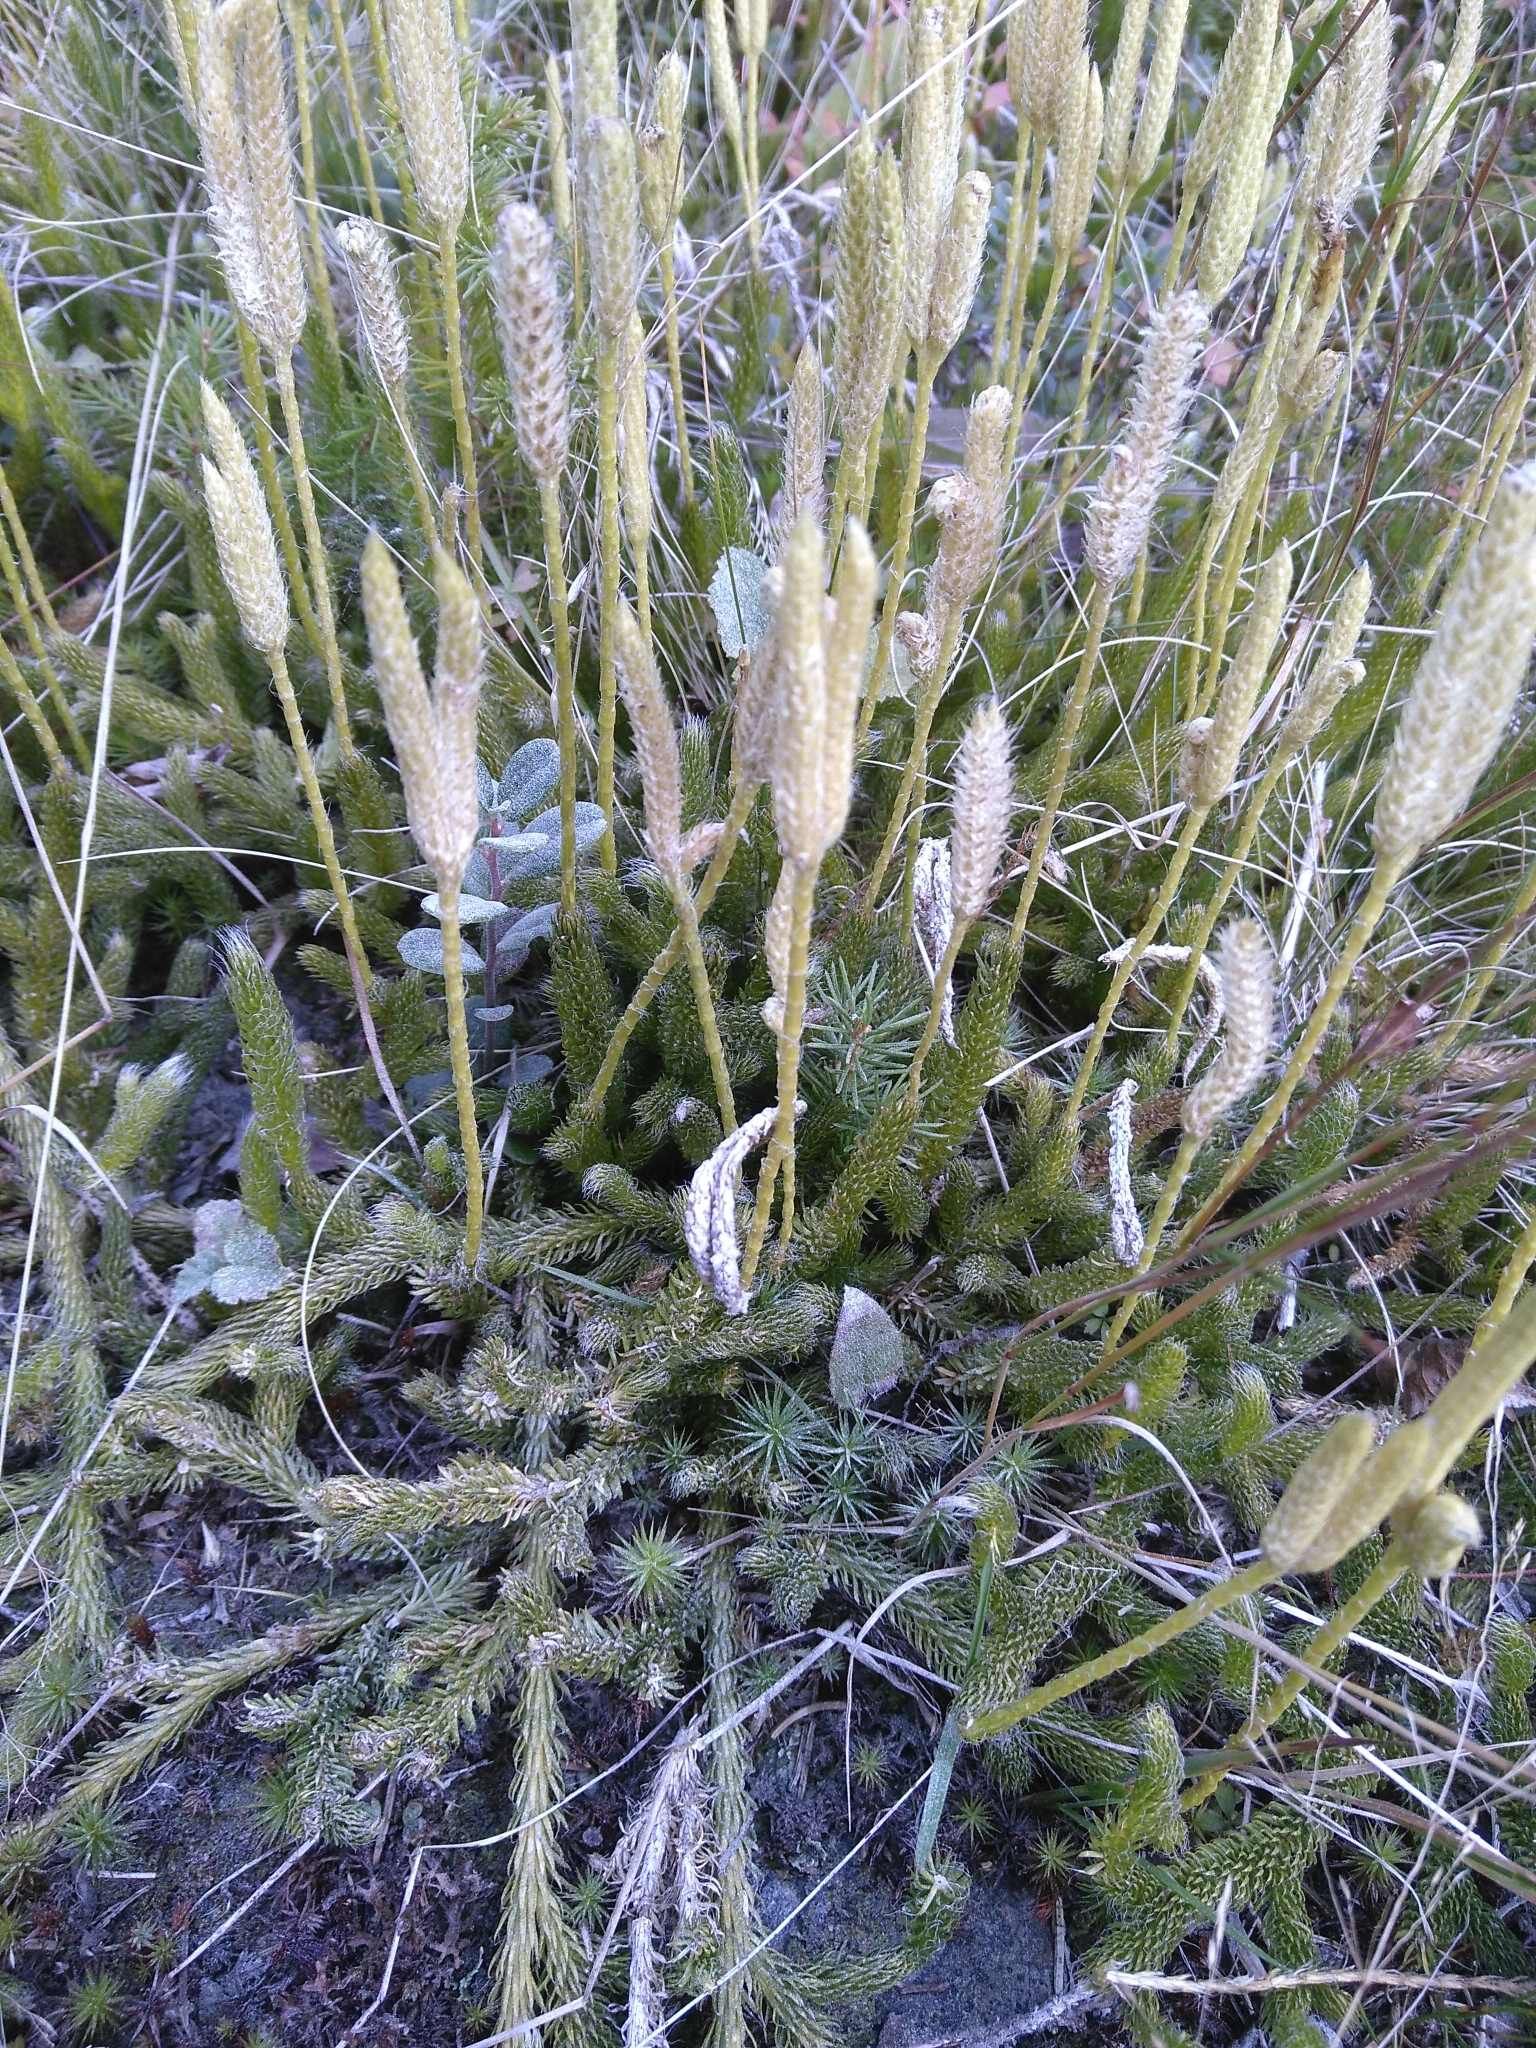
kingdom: Plantae
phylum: Tracheophyta
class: Lycopodiopsida
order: Lycopodiales
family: Lycopodiaceae
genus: Lycopodium
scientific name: Lycopodium clavatum
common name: Stag's-horn clubmoss
